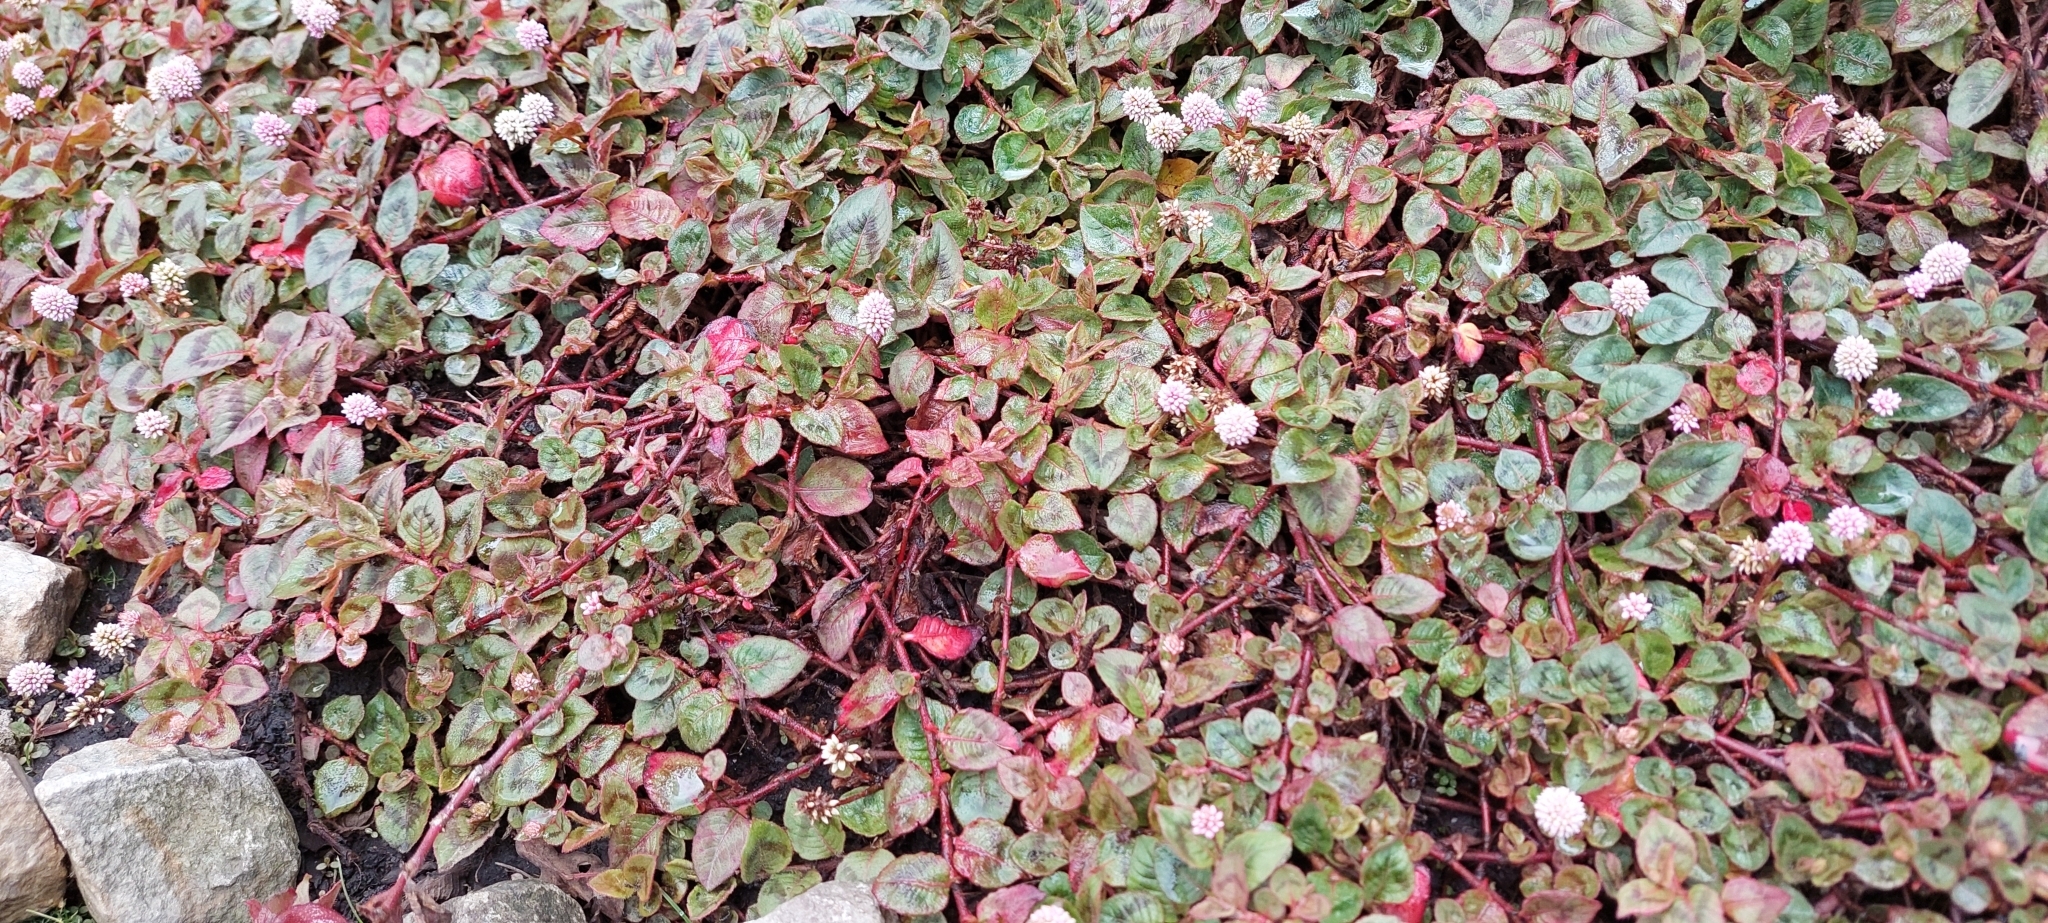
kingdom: Plantae
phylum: Tracheophyta
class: Magnoliopsida
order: Caryophyllales
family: Polygonaceae
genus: Persicaria
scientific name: Persicaria capitata
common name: Pinkhead smartweed
